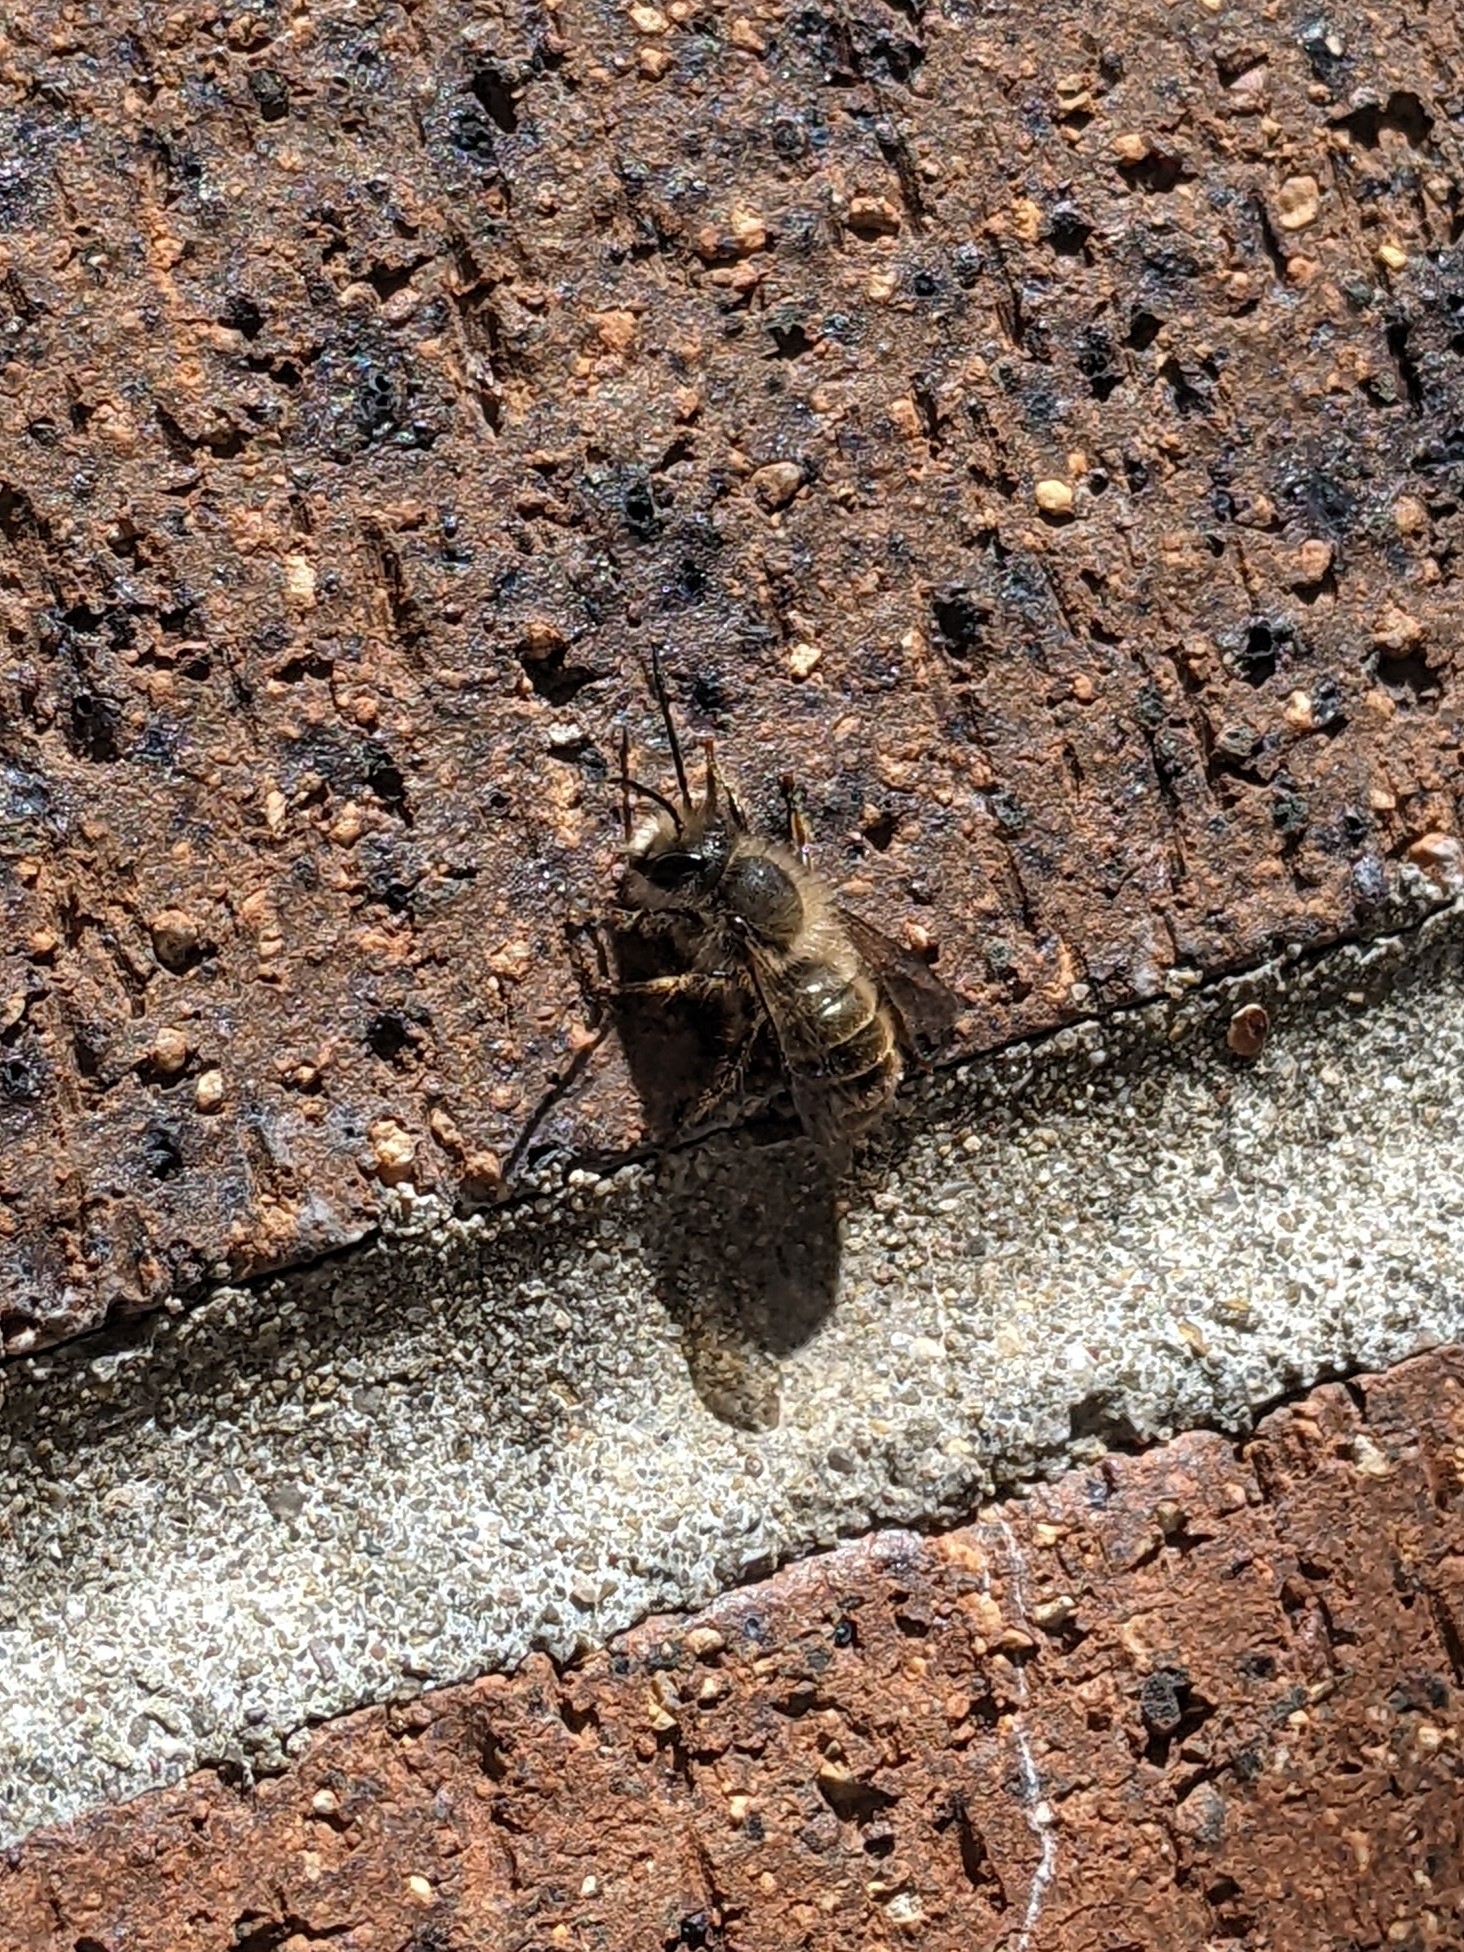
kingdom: Animalia
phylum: Arthropoda
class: Insecta
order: Hymenoptera
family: Megachilidae
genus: Osmia
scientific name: Osmia cornifrons
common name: Horn-faced bee
